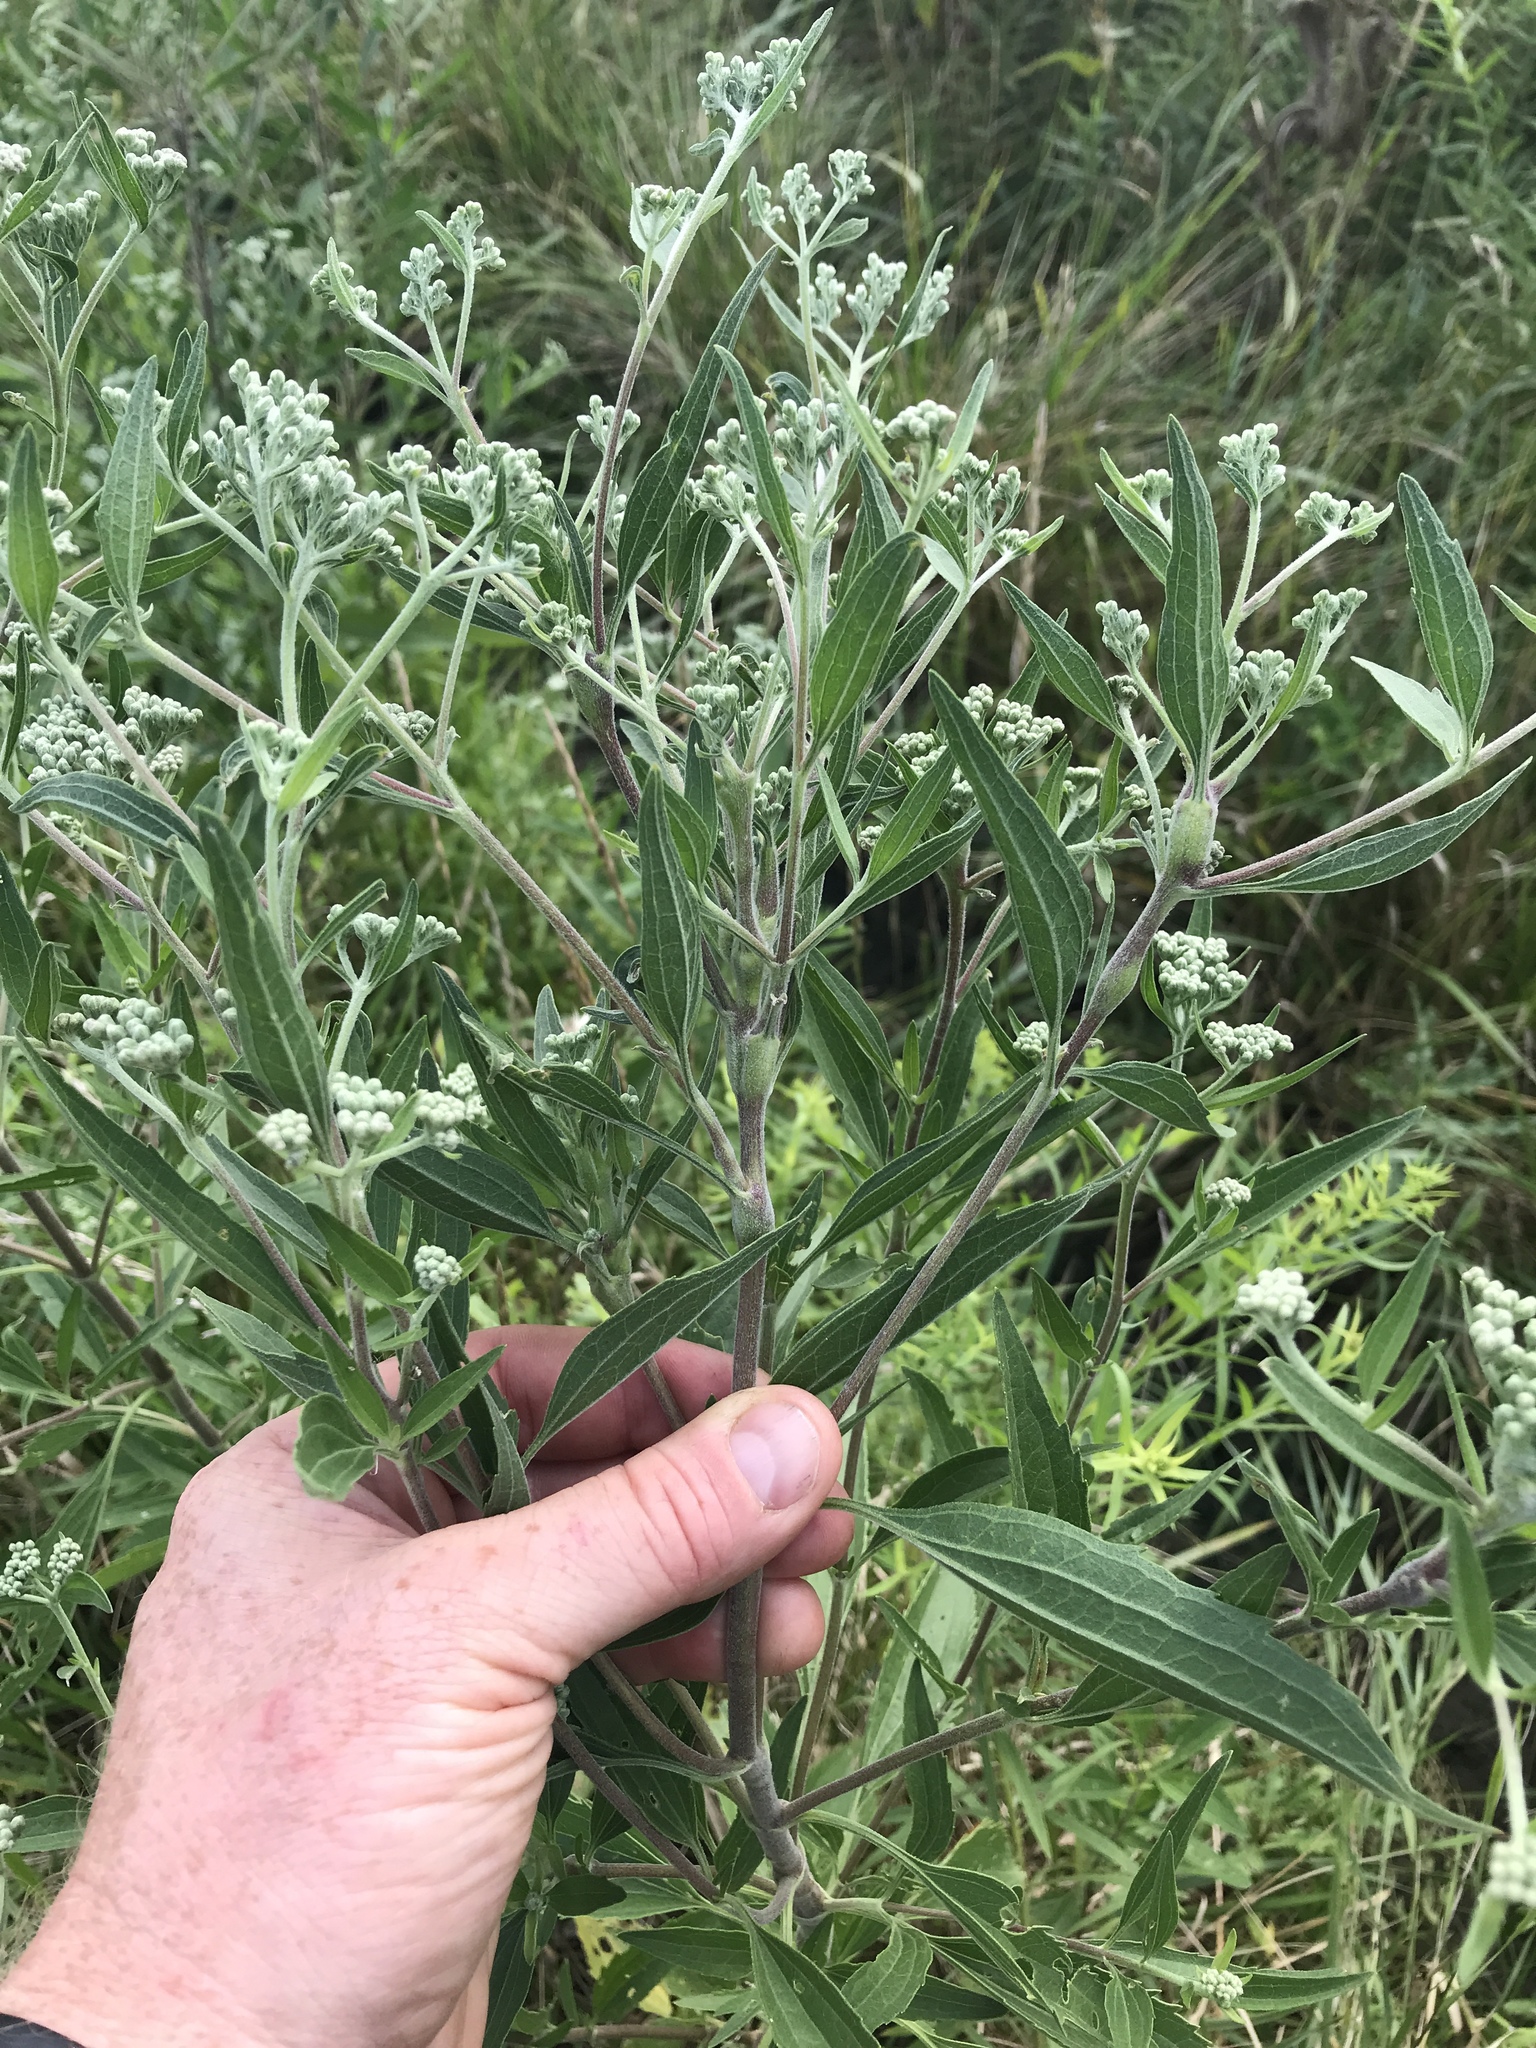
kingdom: Plantae
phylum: Tracheophyta
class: Magnoliopsida
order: Asterales
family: Asteraceae
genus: Eupatorium
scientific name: Eupatorium altissimum
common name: Tall thoroughwort
